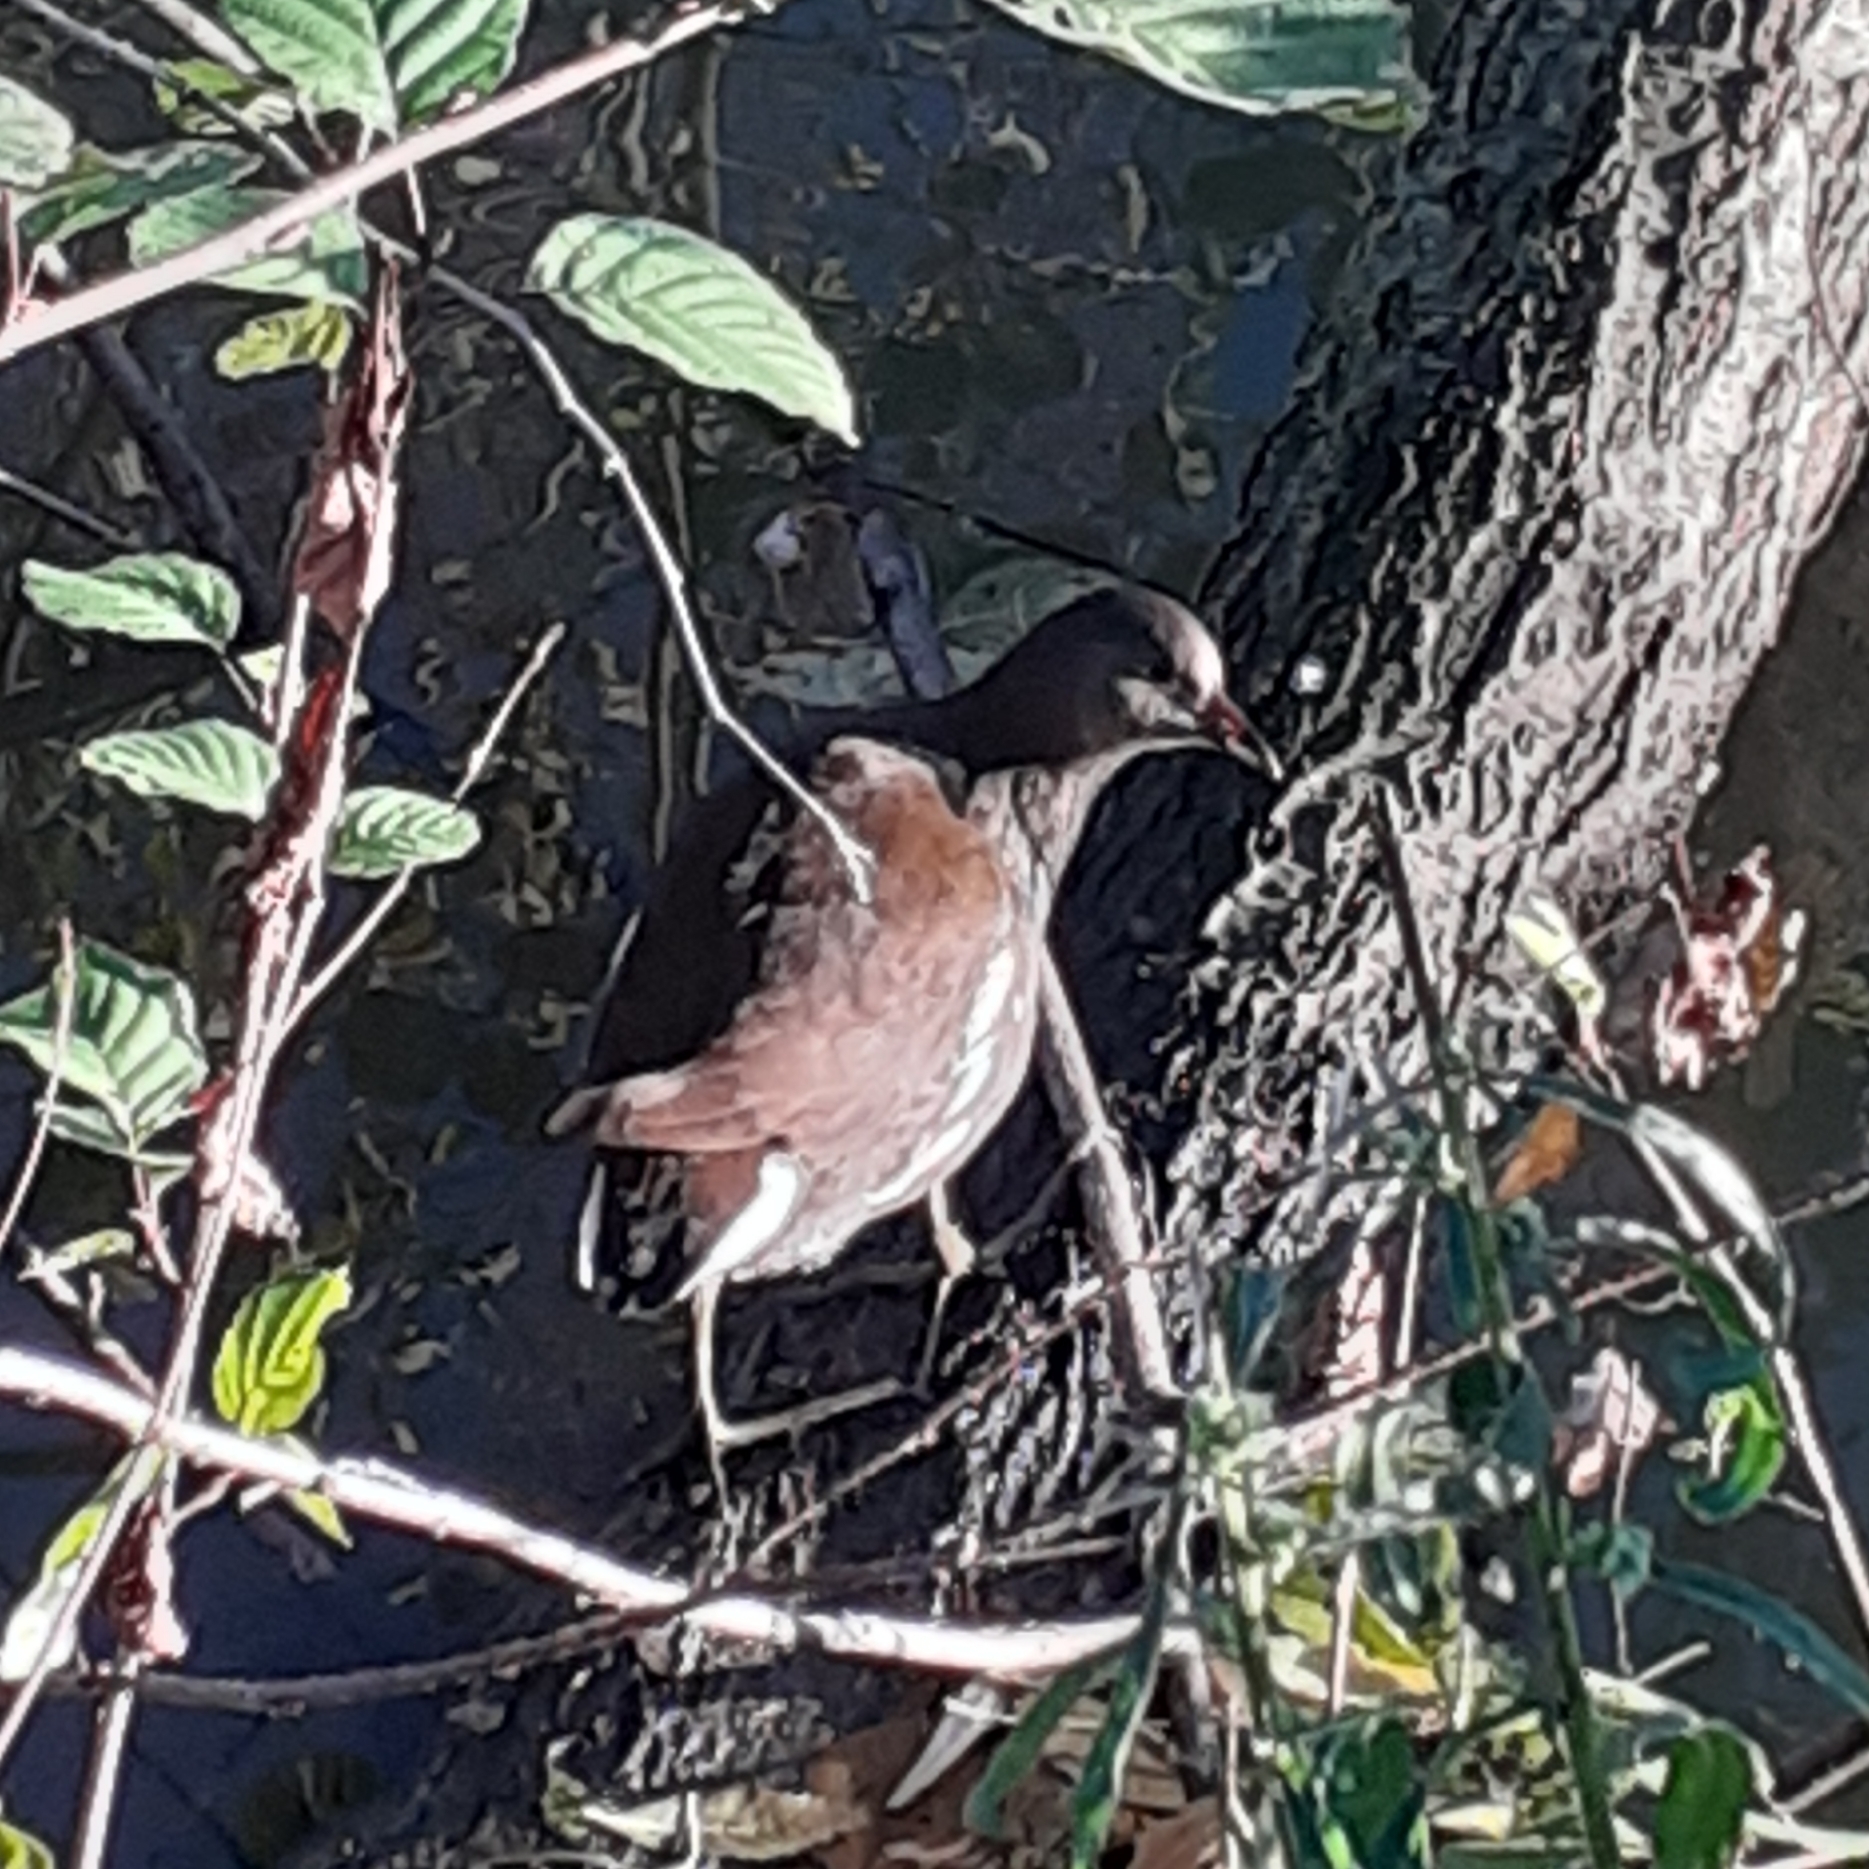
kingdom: Animalia
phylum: Chordata
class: Aves
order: Gruiformes
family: Rallidae
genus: Gallinula
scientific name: Gallinula chloropus
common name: Common moorhen
